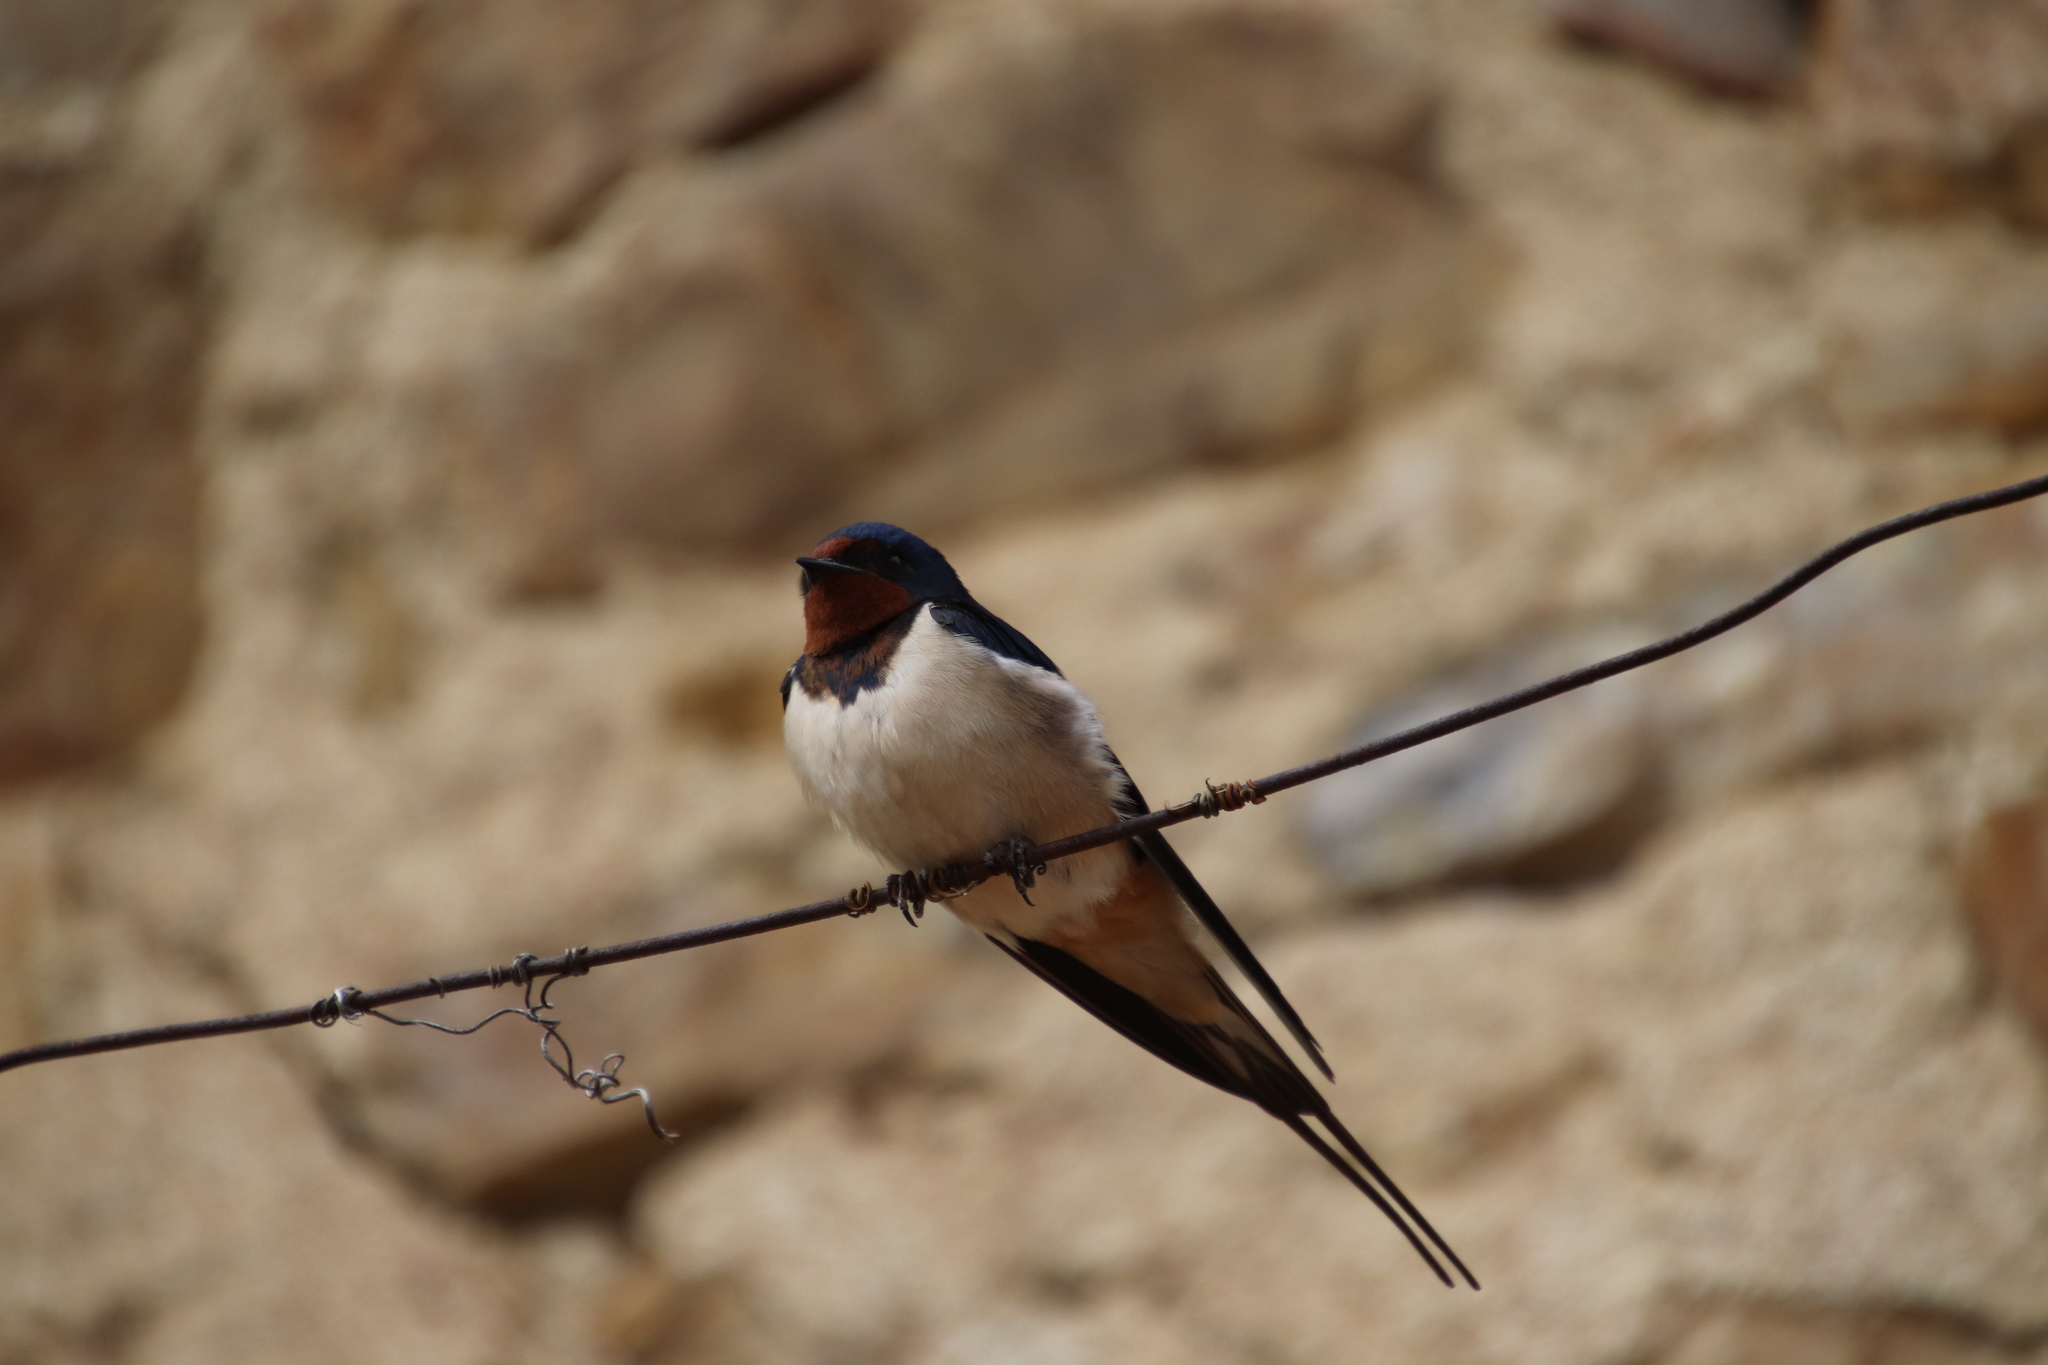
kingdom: Animalia
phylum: Chordata
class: Aves
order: Passeriformes
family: Hirundinidae
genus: Hirundo
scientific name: Hirundo rustica
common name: Barn swallow
